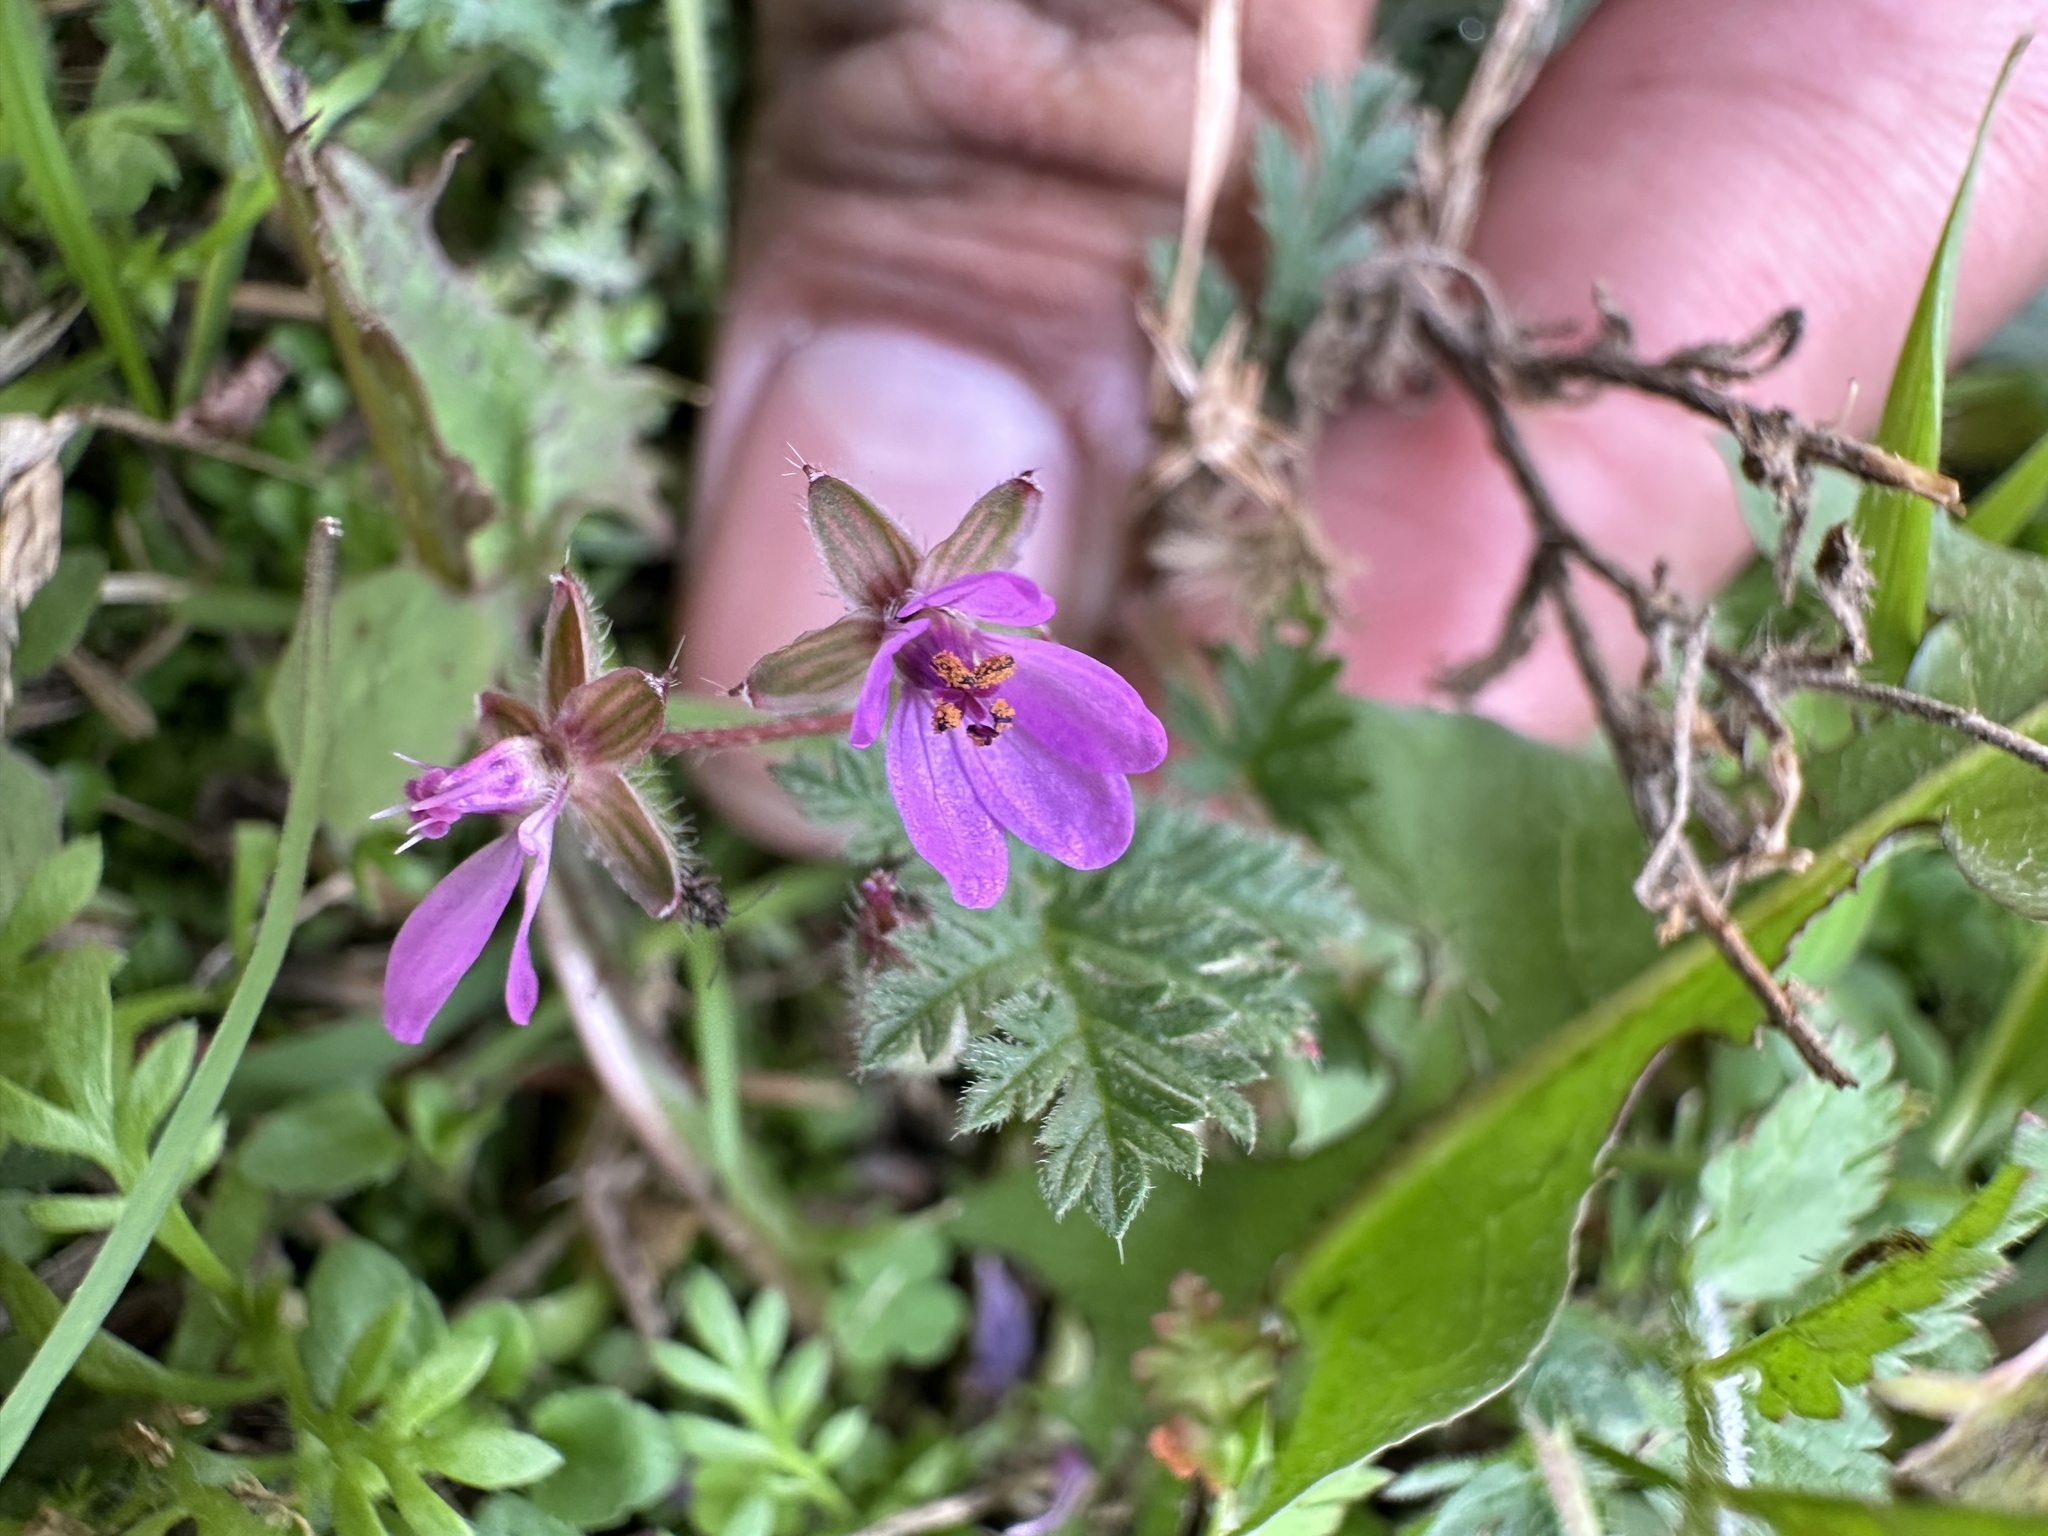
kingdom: Plantae
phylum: Tracheophyta
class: Magnoliopsida
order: Geraniales
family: Geraniaceae
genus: Erodium
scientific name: Erodium cicutarium
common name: Common stork's-bill
